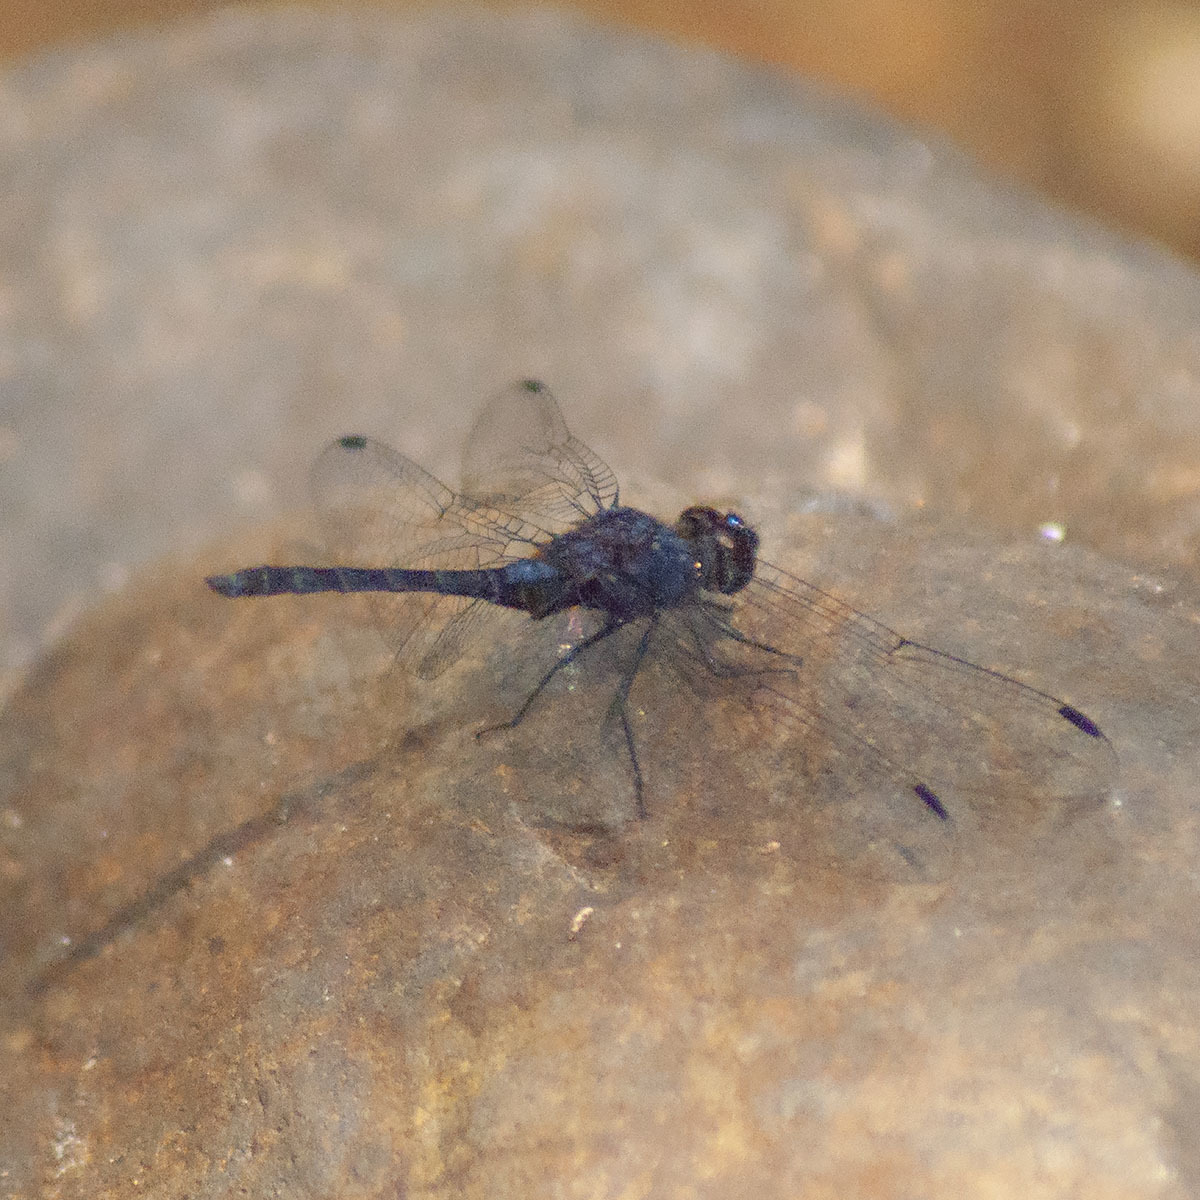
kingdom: Animalia
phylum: Arthropoda
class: Insecta
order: Odonata
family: Libellulidae
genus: Trithemis
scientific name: Trithemis festiva
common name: Indigo dropwing
